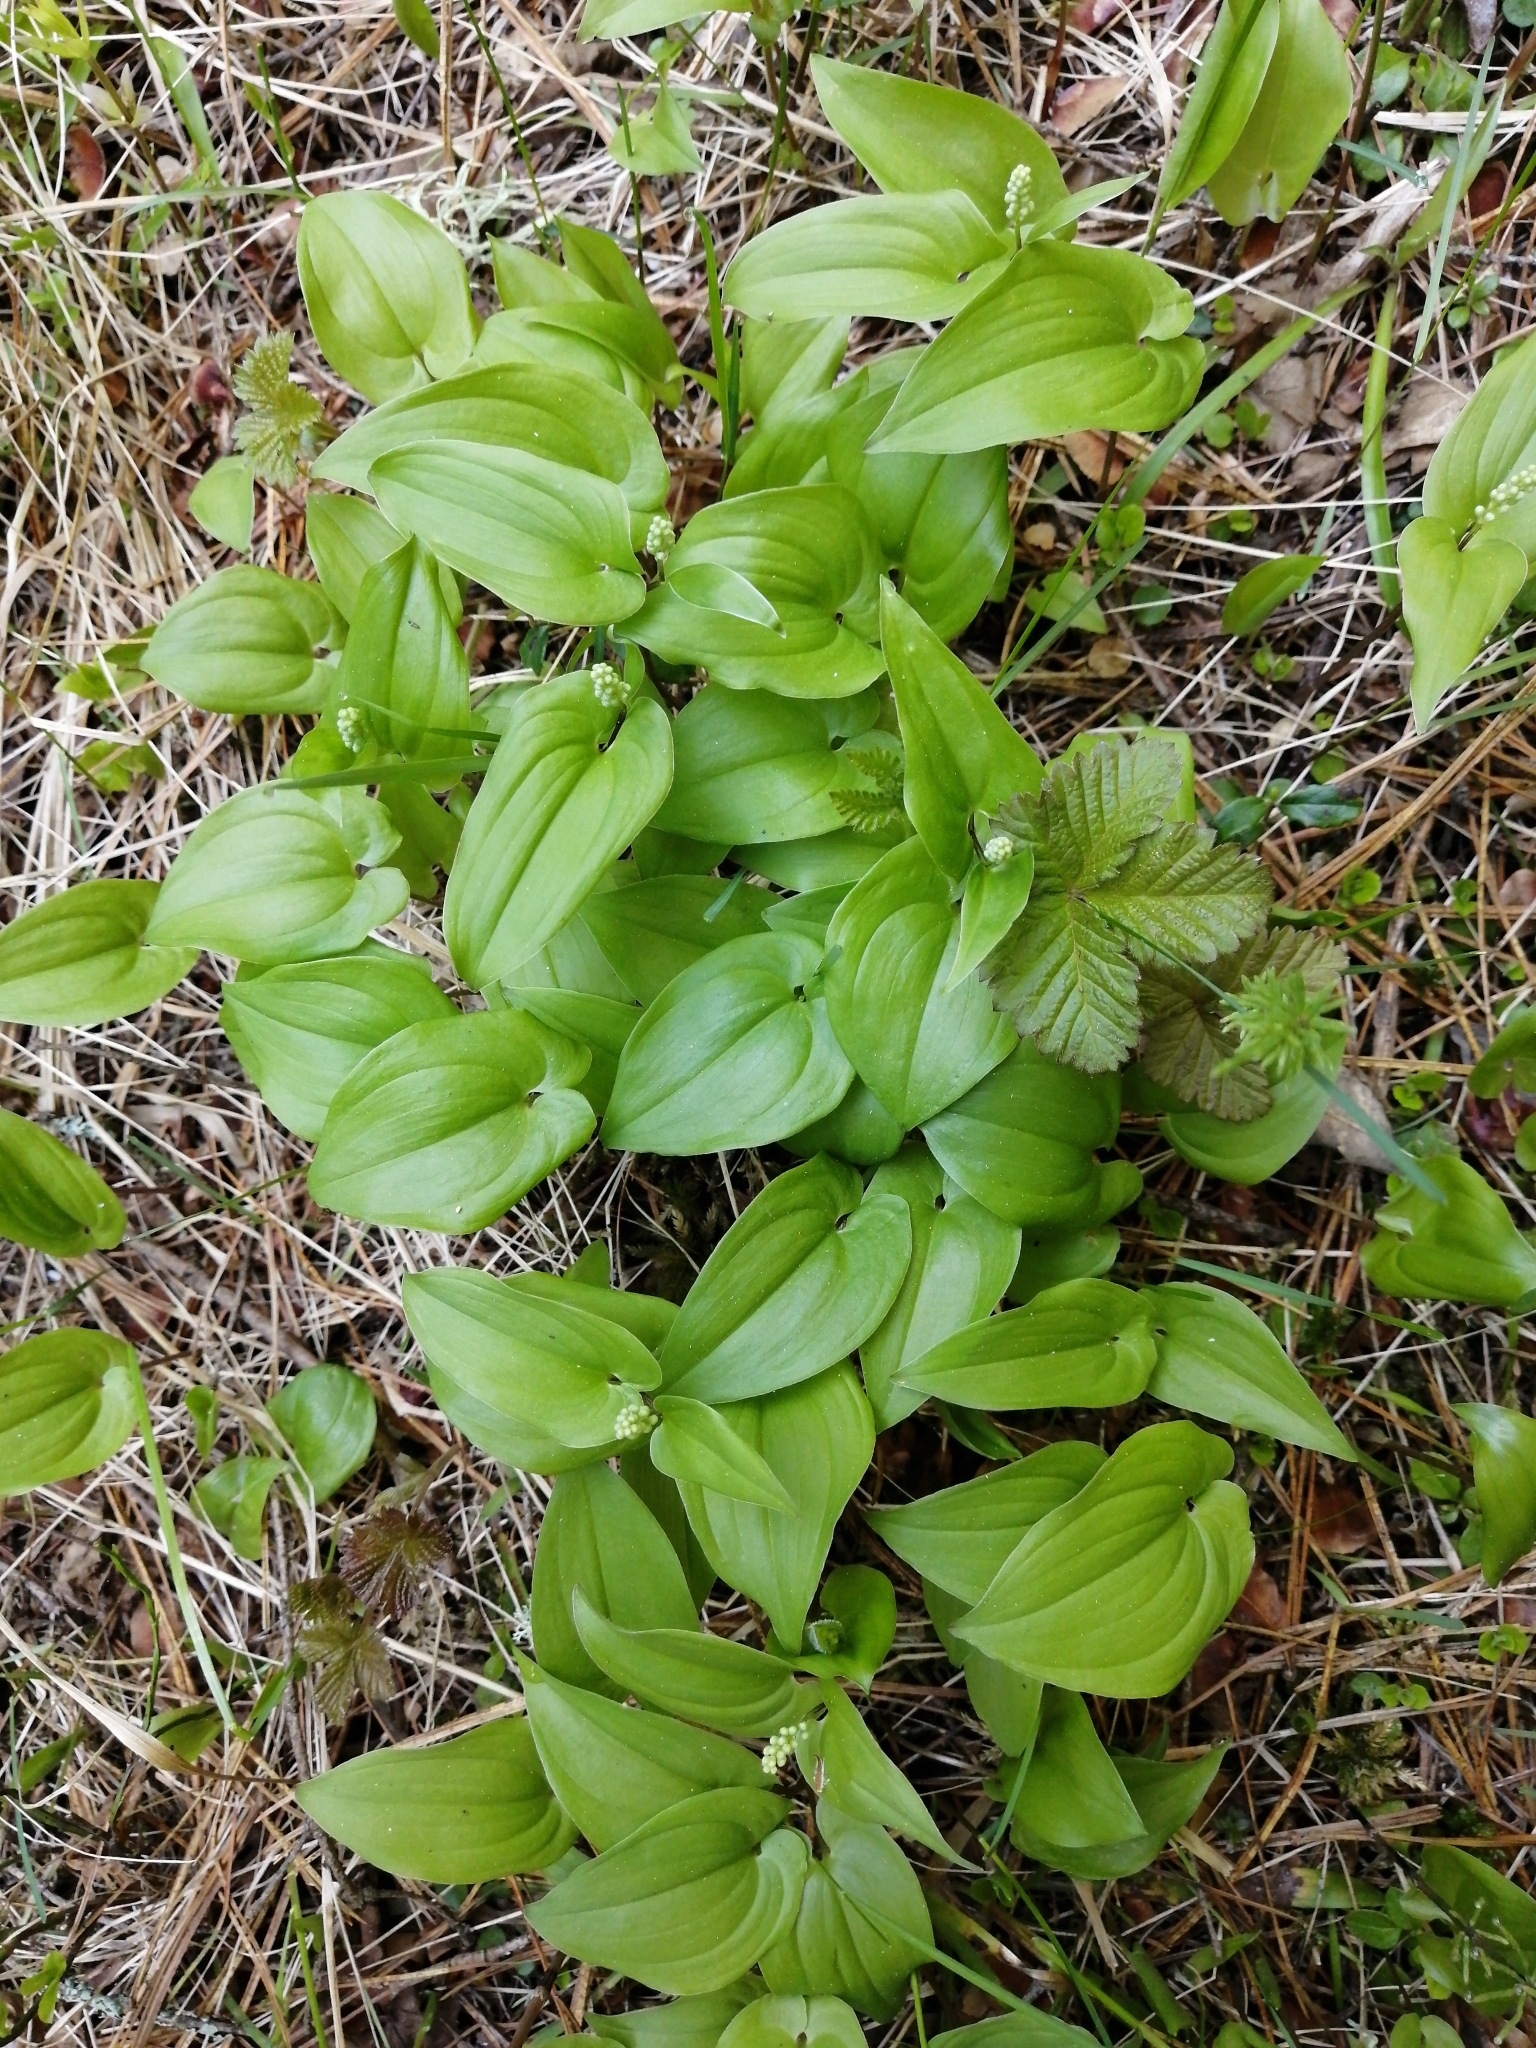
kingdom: Plantae
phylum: Tracheophyta
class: Liliopsida
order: Asparagales
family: Asparagaceae
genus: Maianthemum
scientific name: Maianthemum bifolium
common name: May lily
